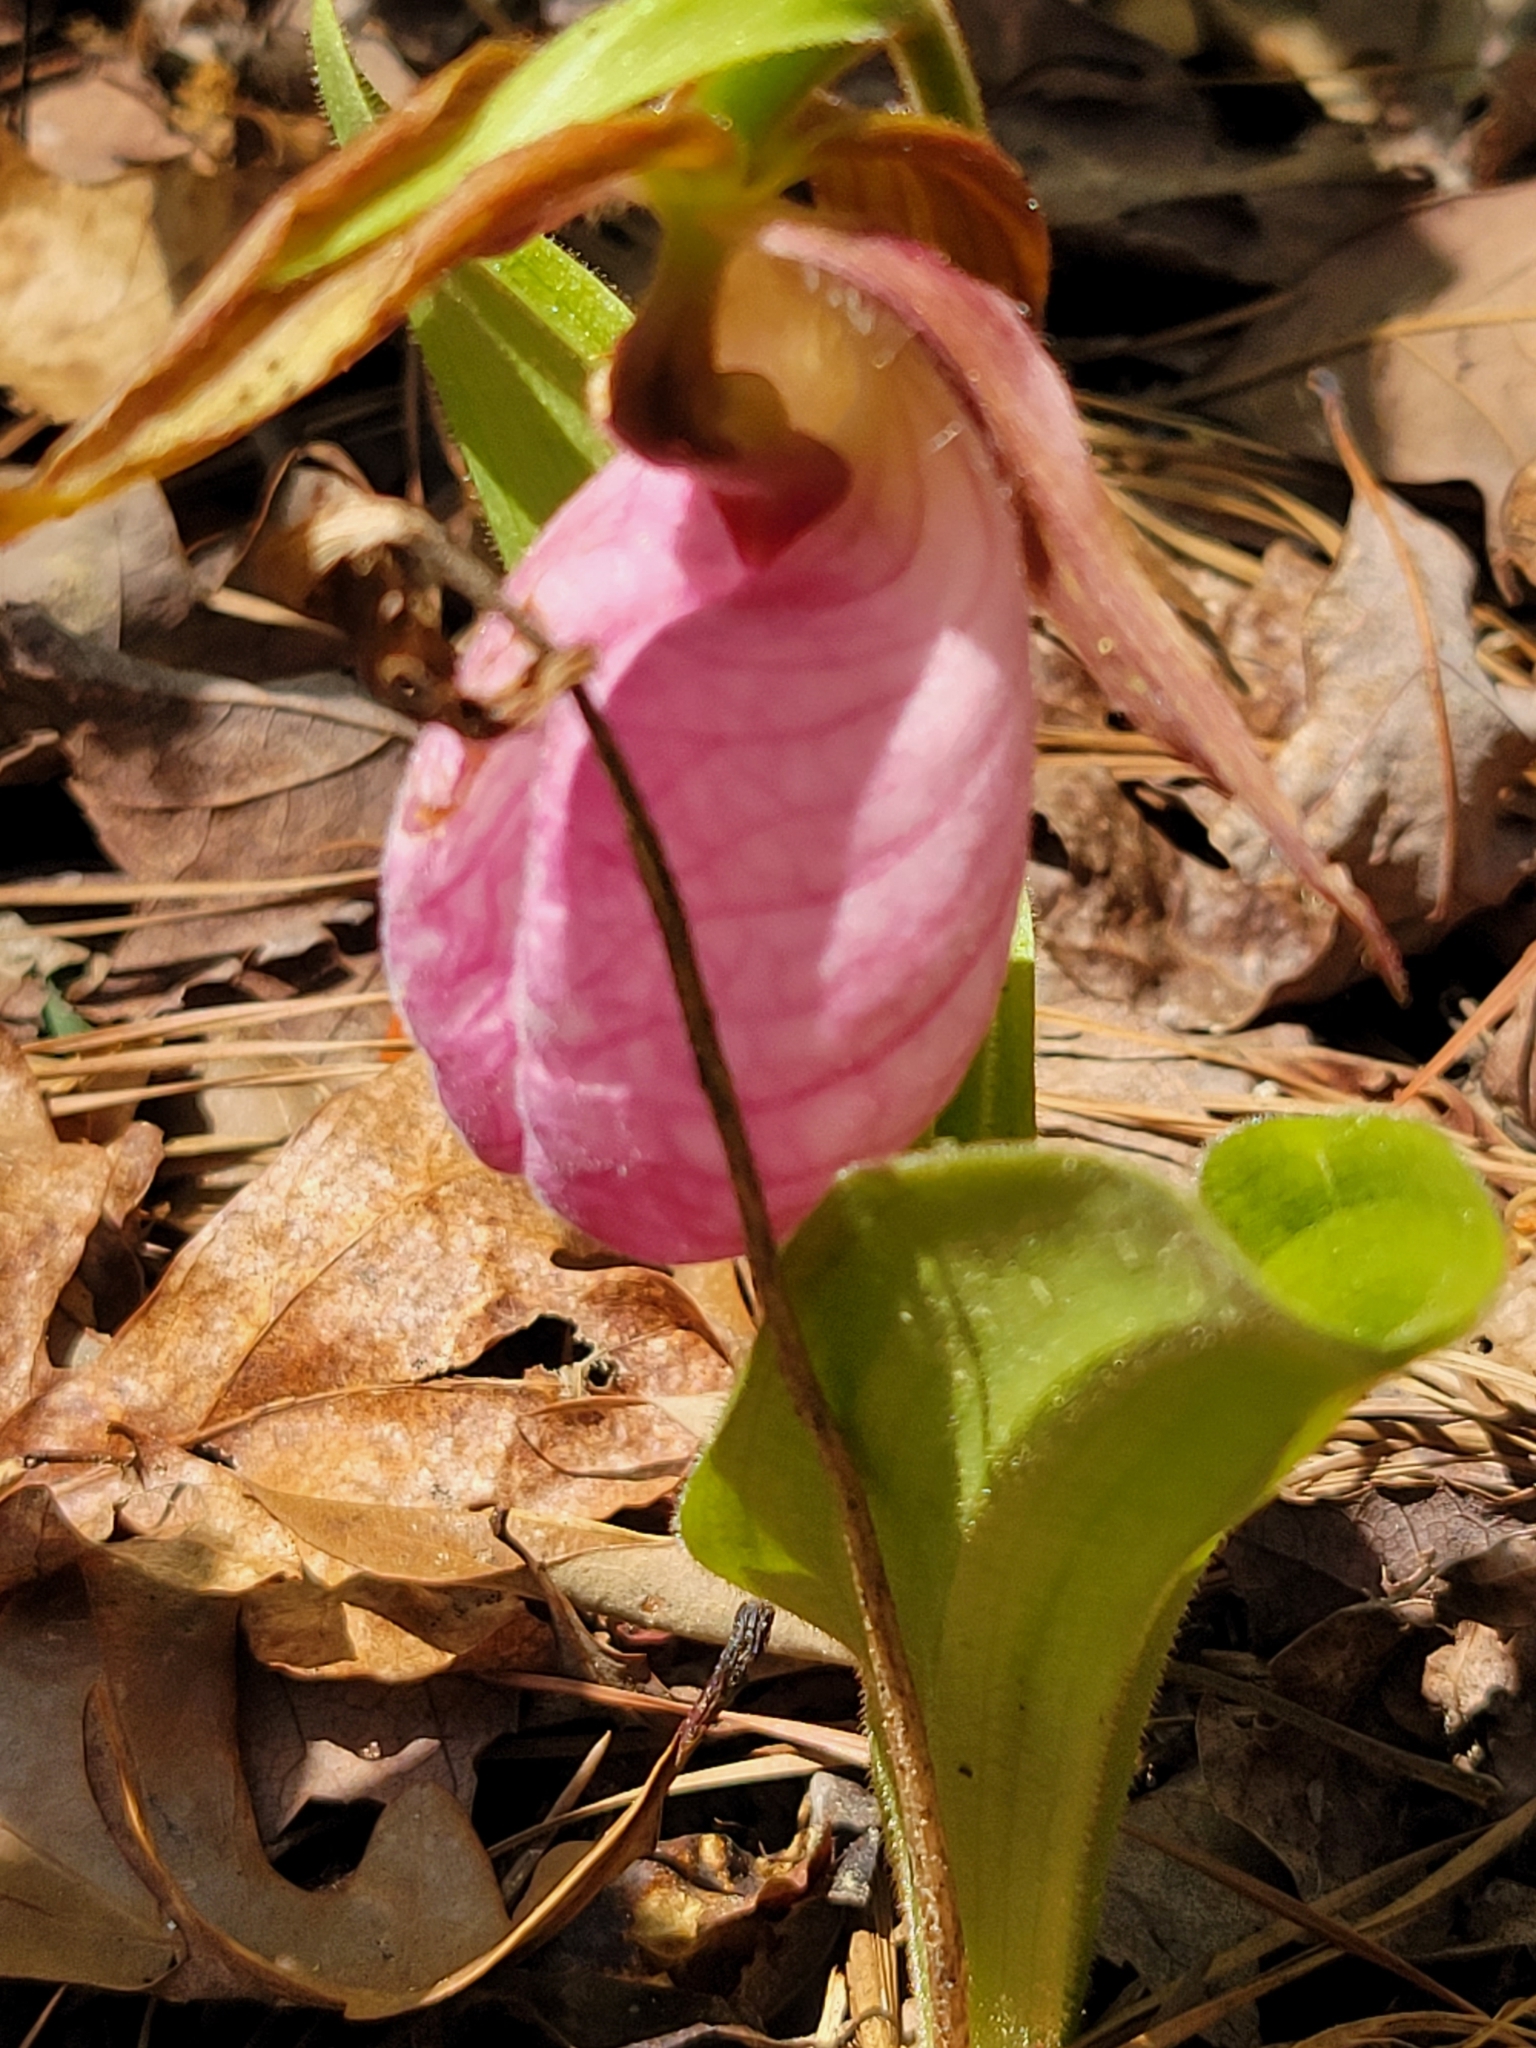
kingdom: Plantae
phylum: Tracheophyta
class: Liliopsida
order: Asparagales
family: Orchidaceae
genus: Cypripedium
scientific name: Cypripedium acaule
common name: Pink lady's-slipper
